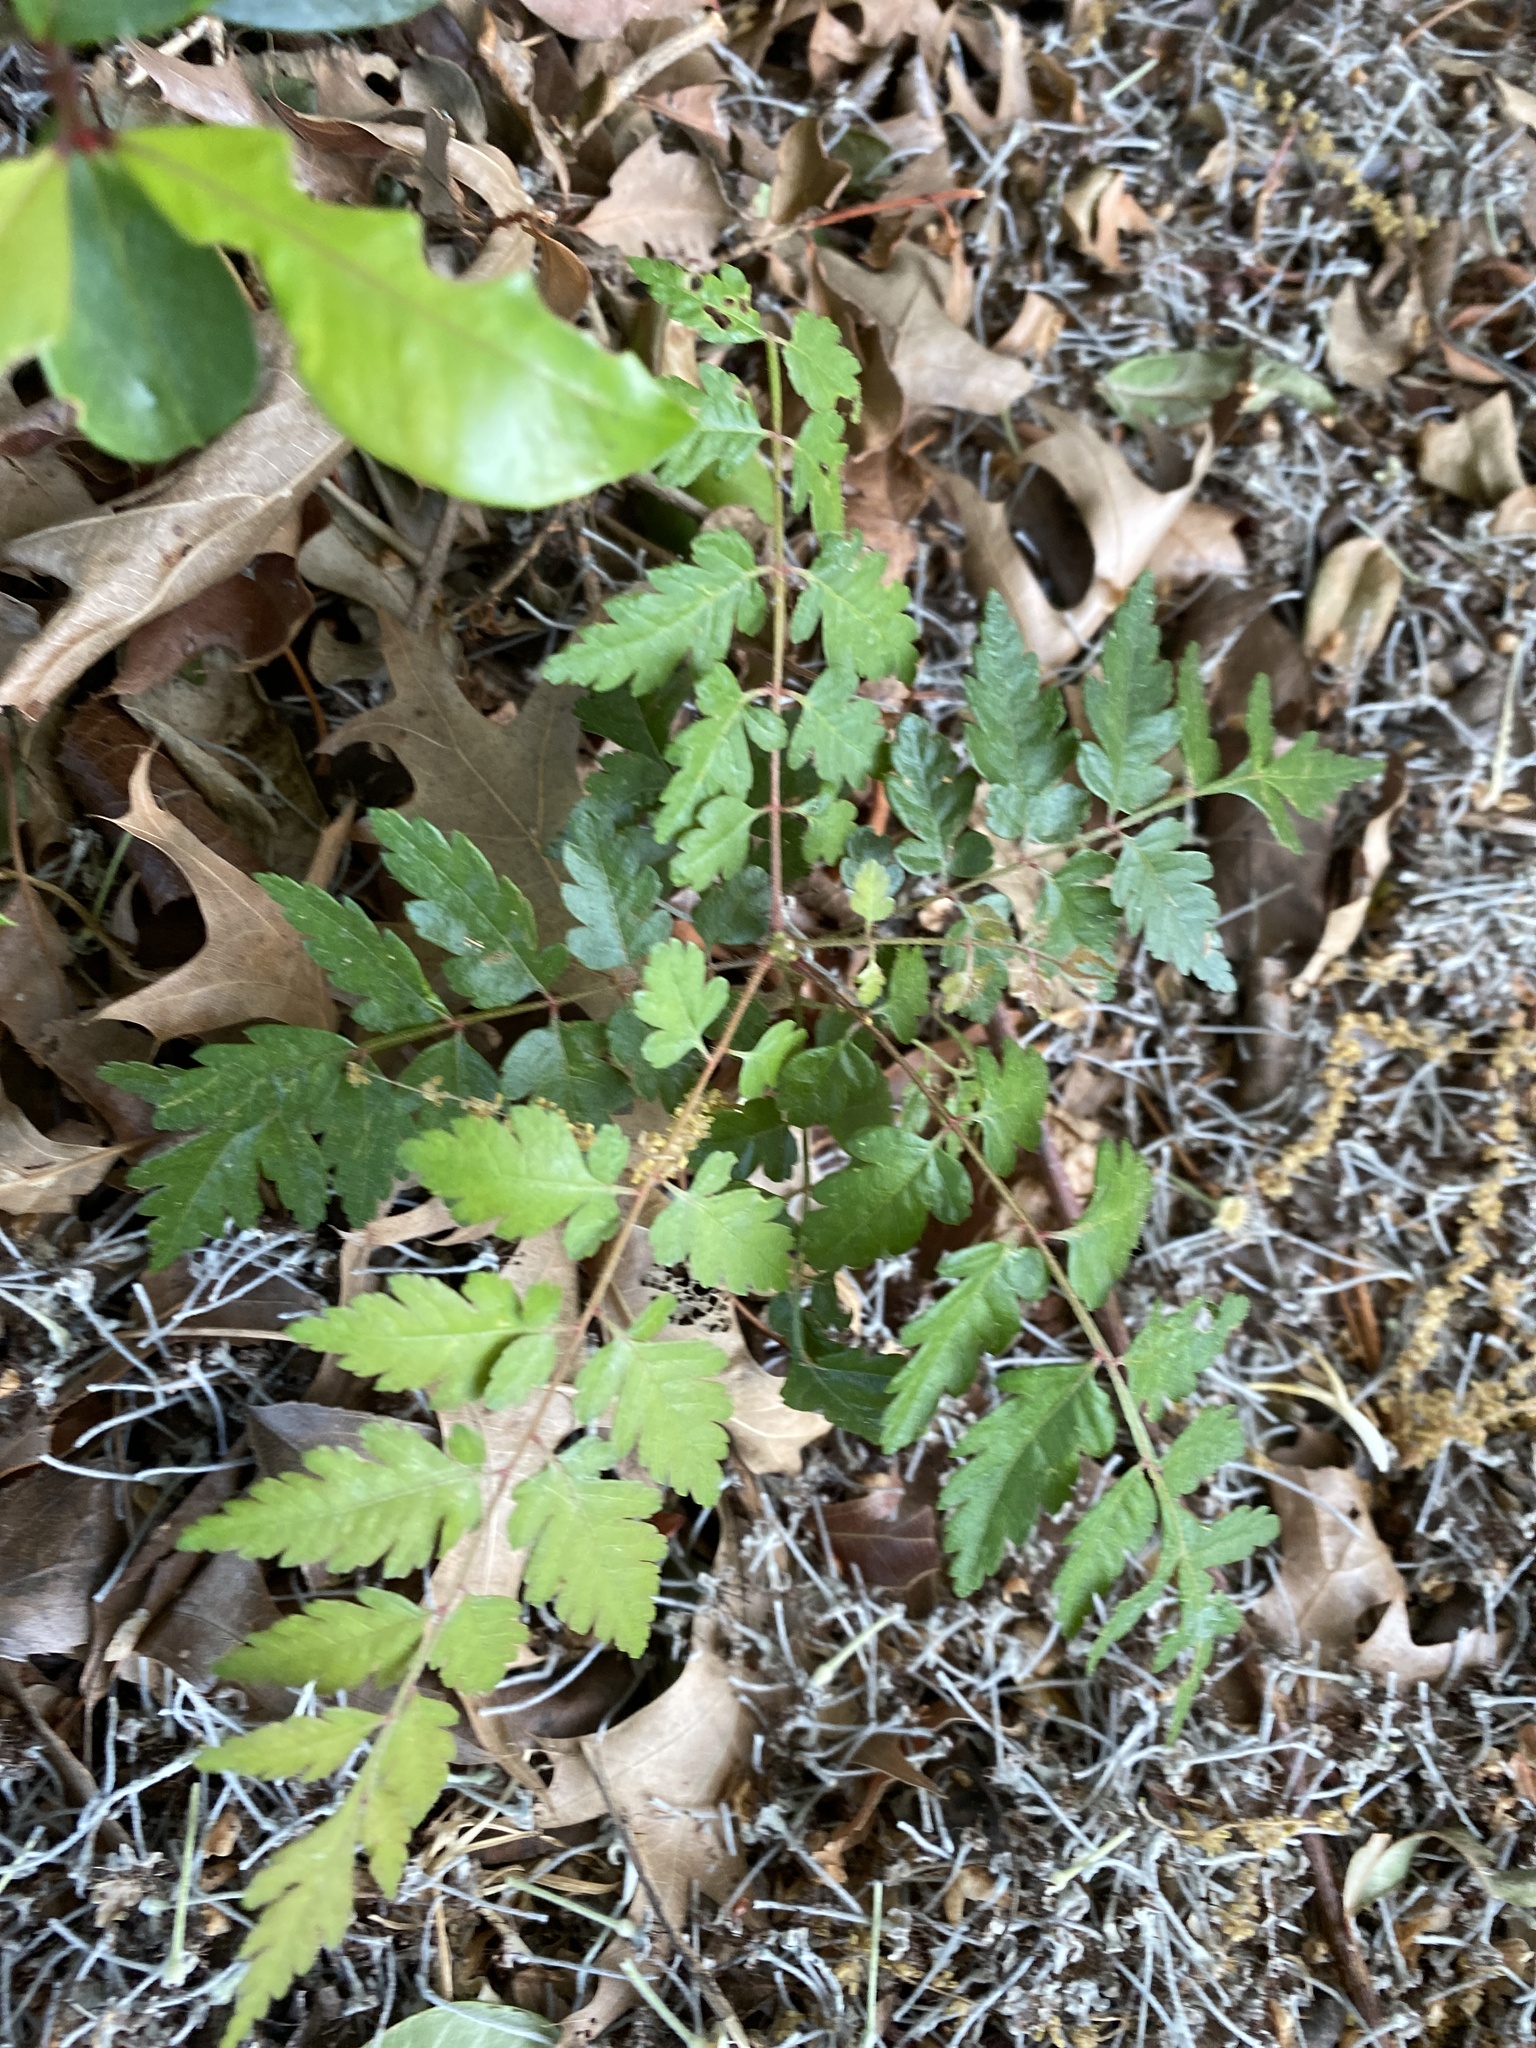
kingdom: Plantae
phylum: Tracheophyta
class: Magnoliopsida
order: Sapindales
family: Sapindaceae
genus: Koelreuteria
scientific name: Koelreuteria elegans
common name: Chinese flame tree
